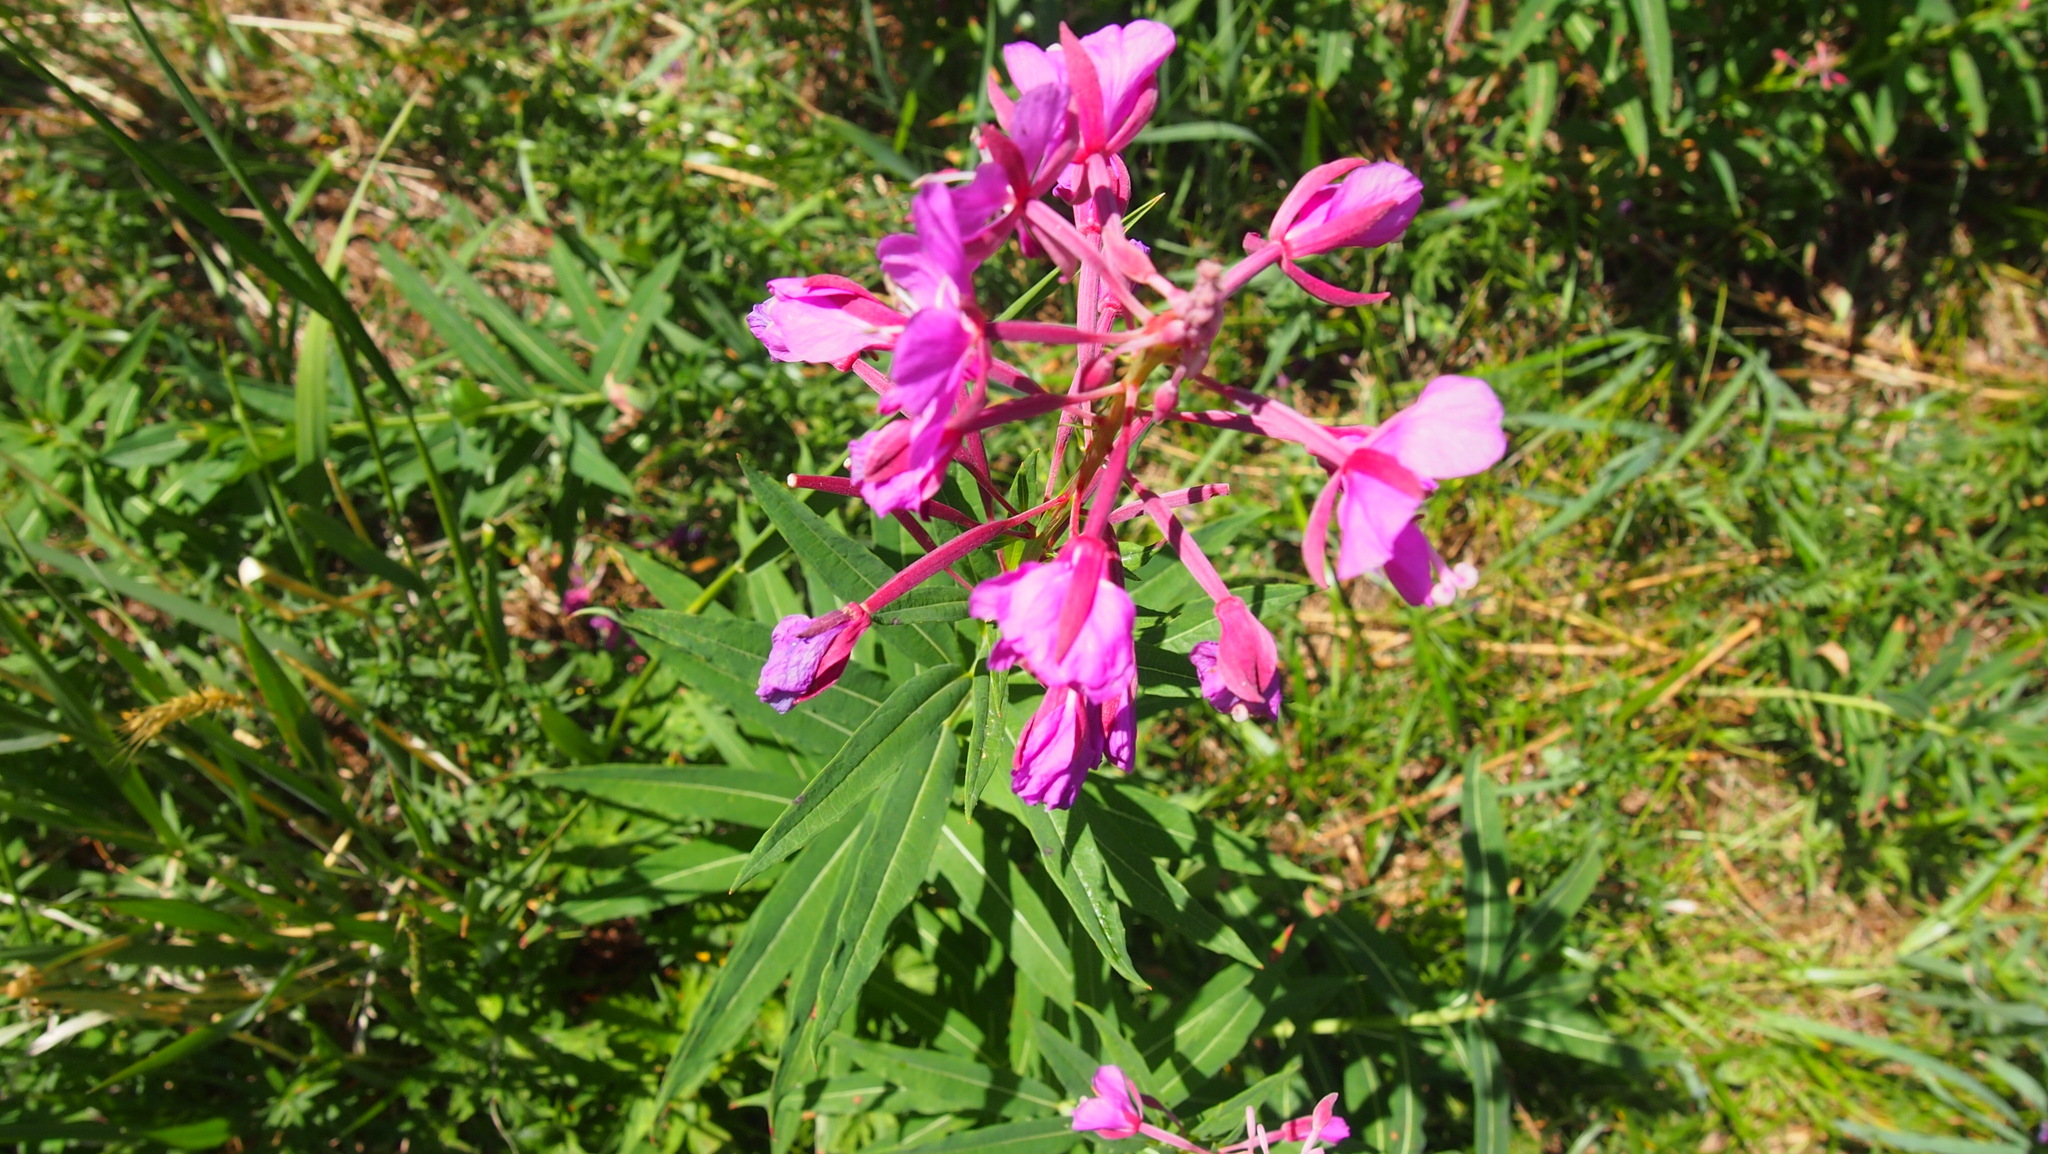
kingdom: Plantae
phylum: Tracheophyta
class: Magnoliopsida
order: Myrtales
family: Onagraceae
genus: Chamaenerion
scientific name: Chamaenerion angustifolium
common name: Fireweed
